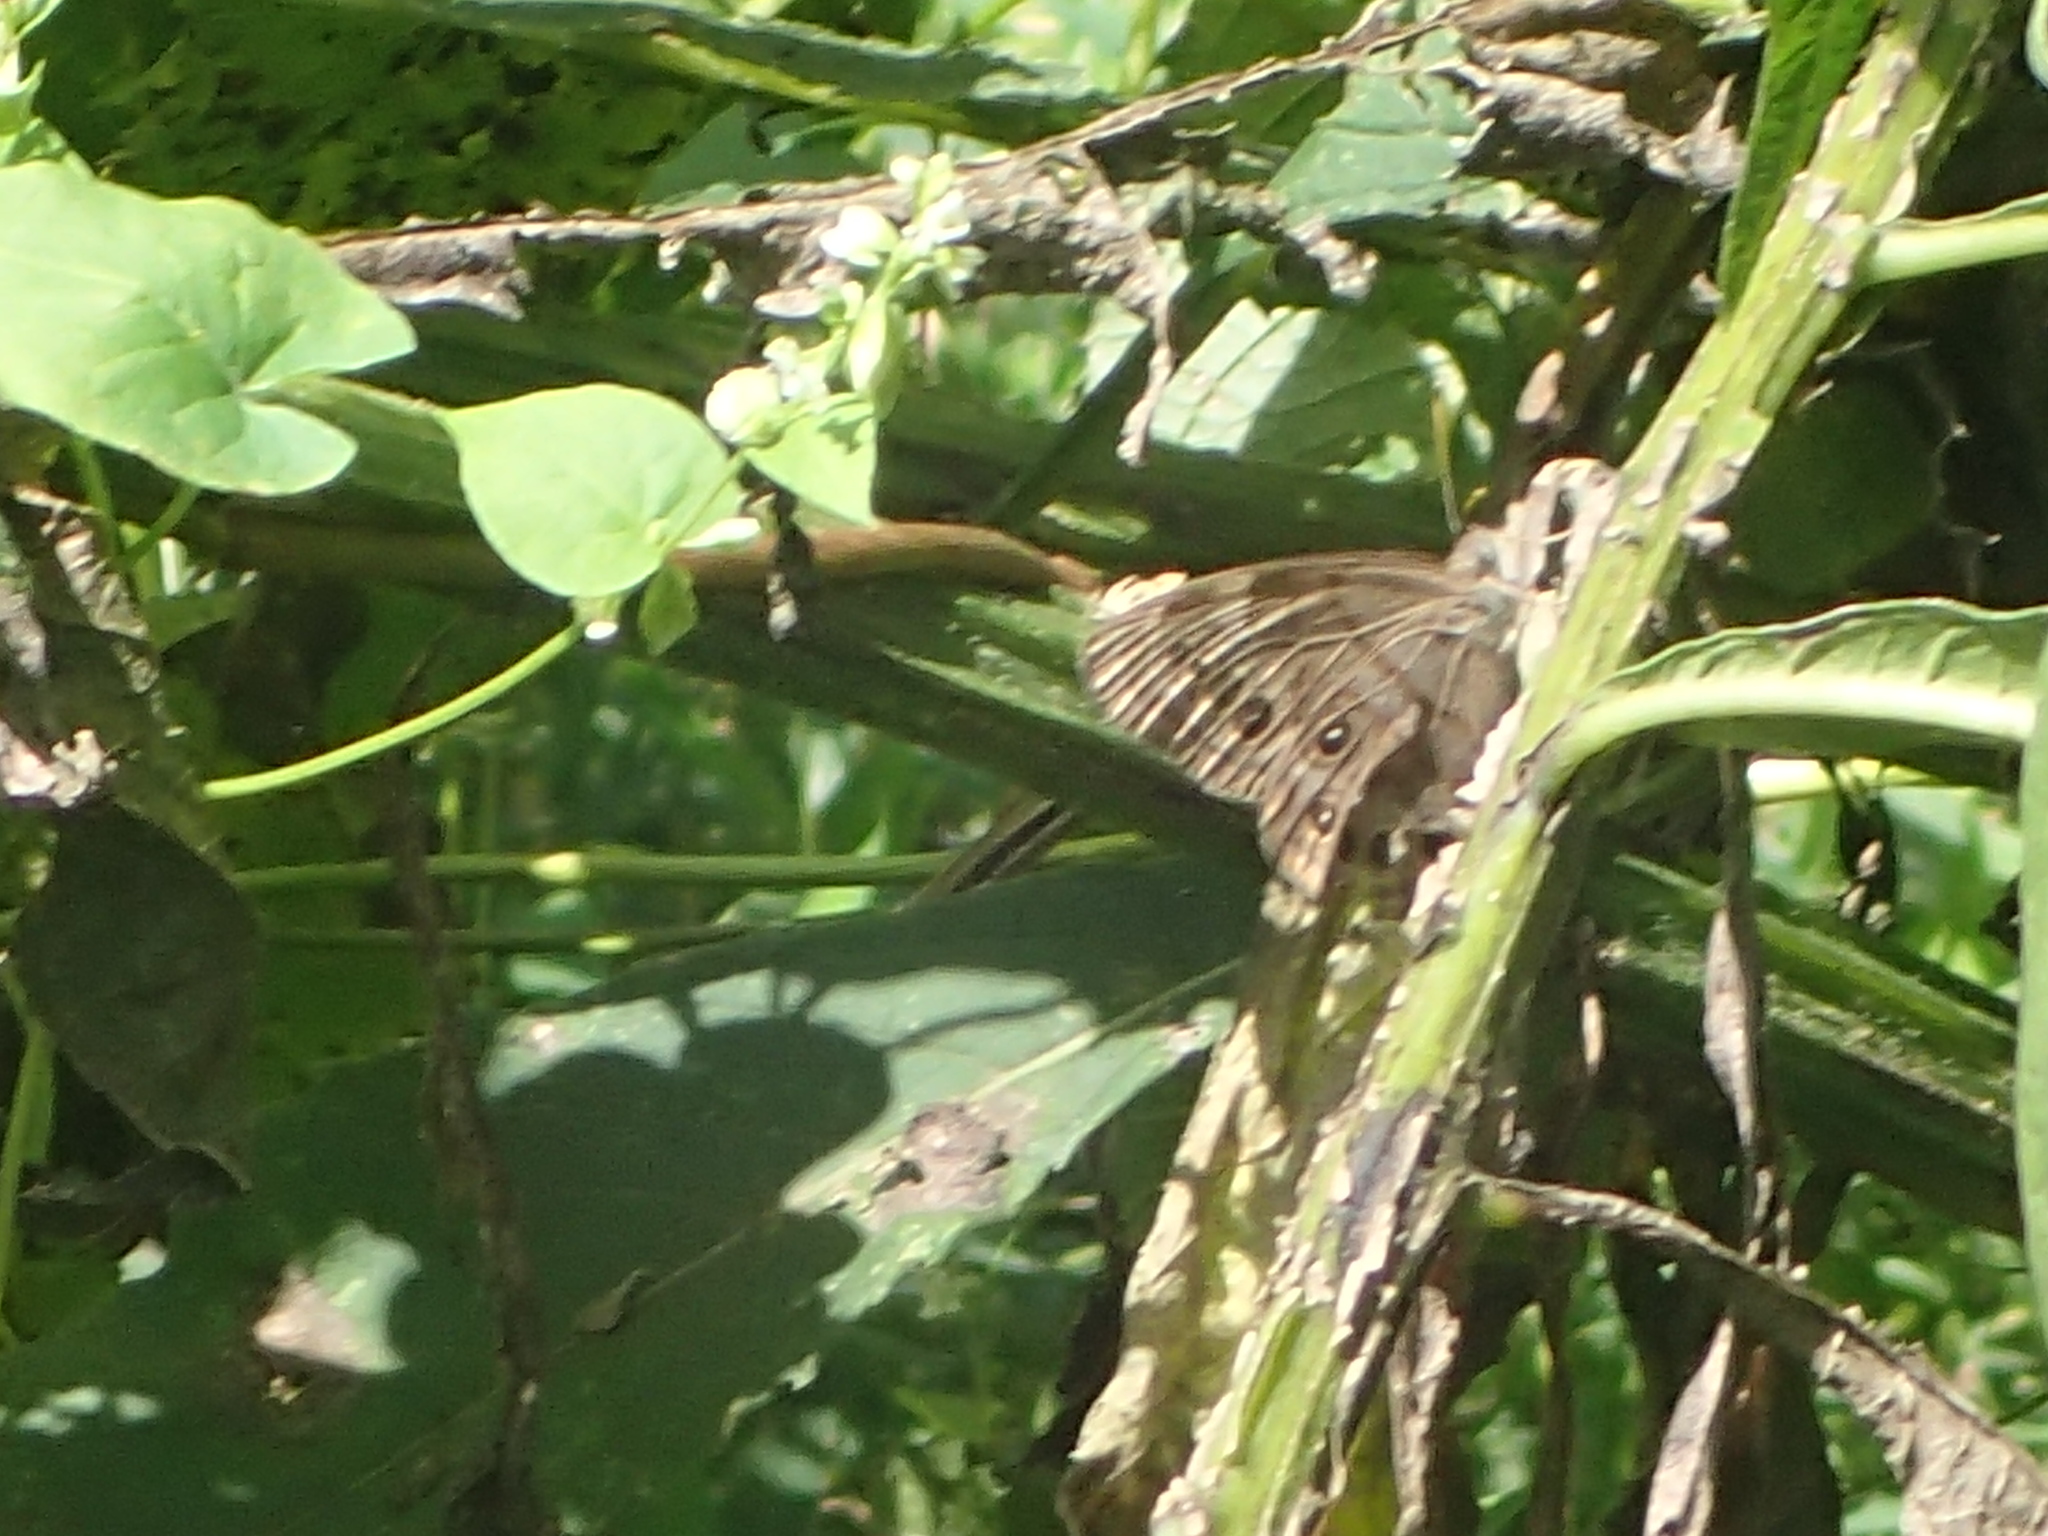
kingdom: Animalia
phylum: Arthropoda
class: Insecta
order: Lepidoptera
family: Nymphalidae
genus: Lethe
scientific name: Lethe anthedon
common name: Northern pearly-eye
